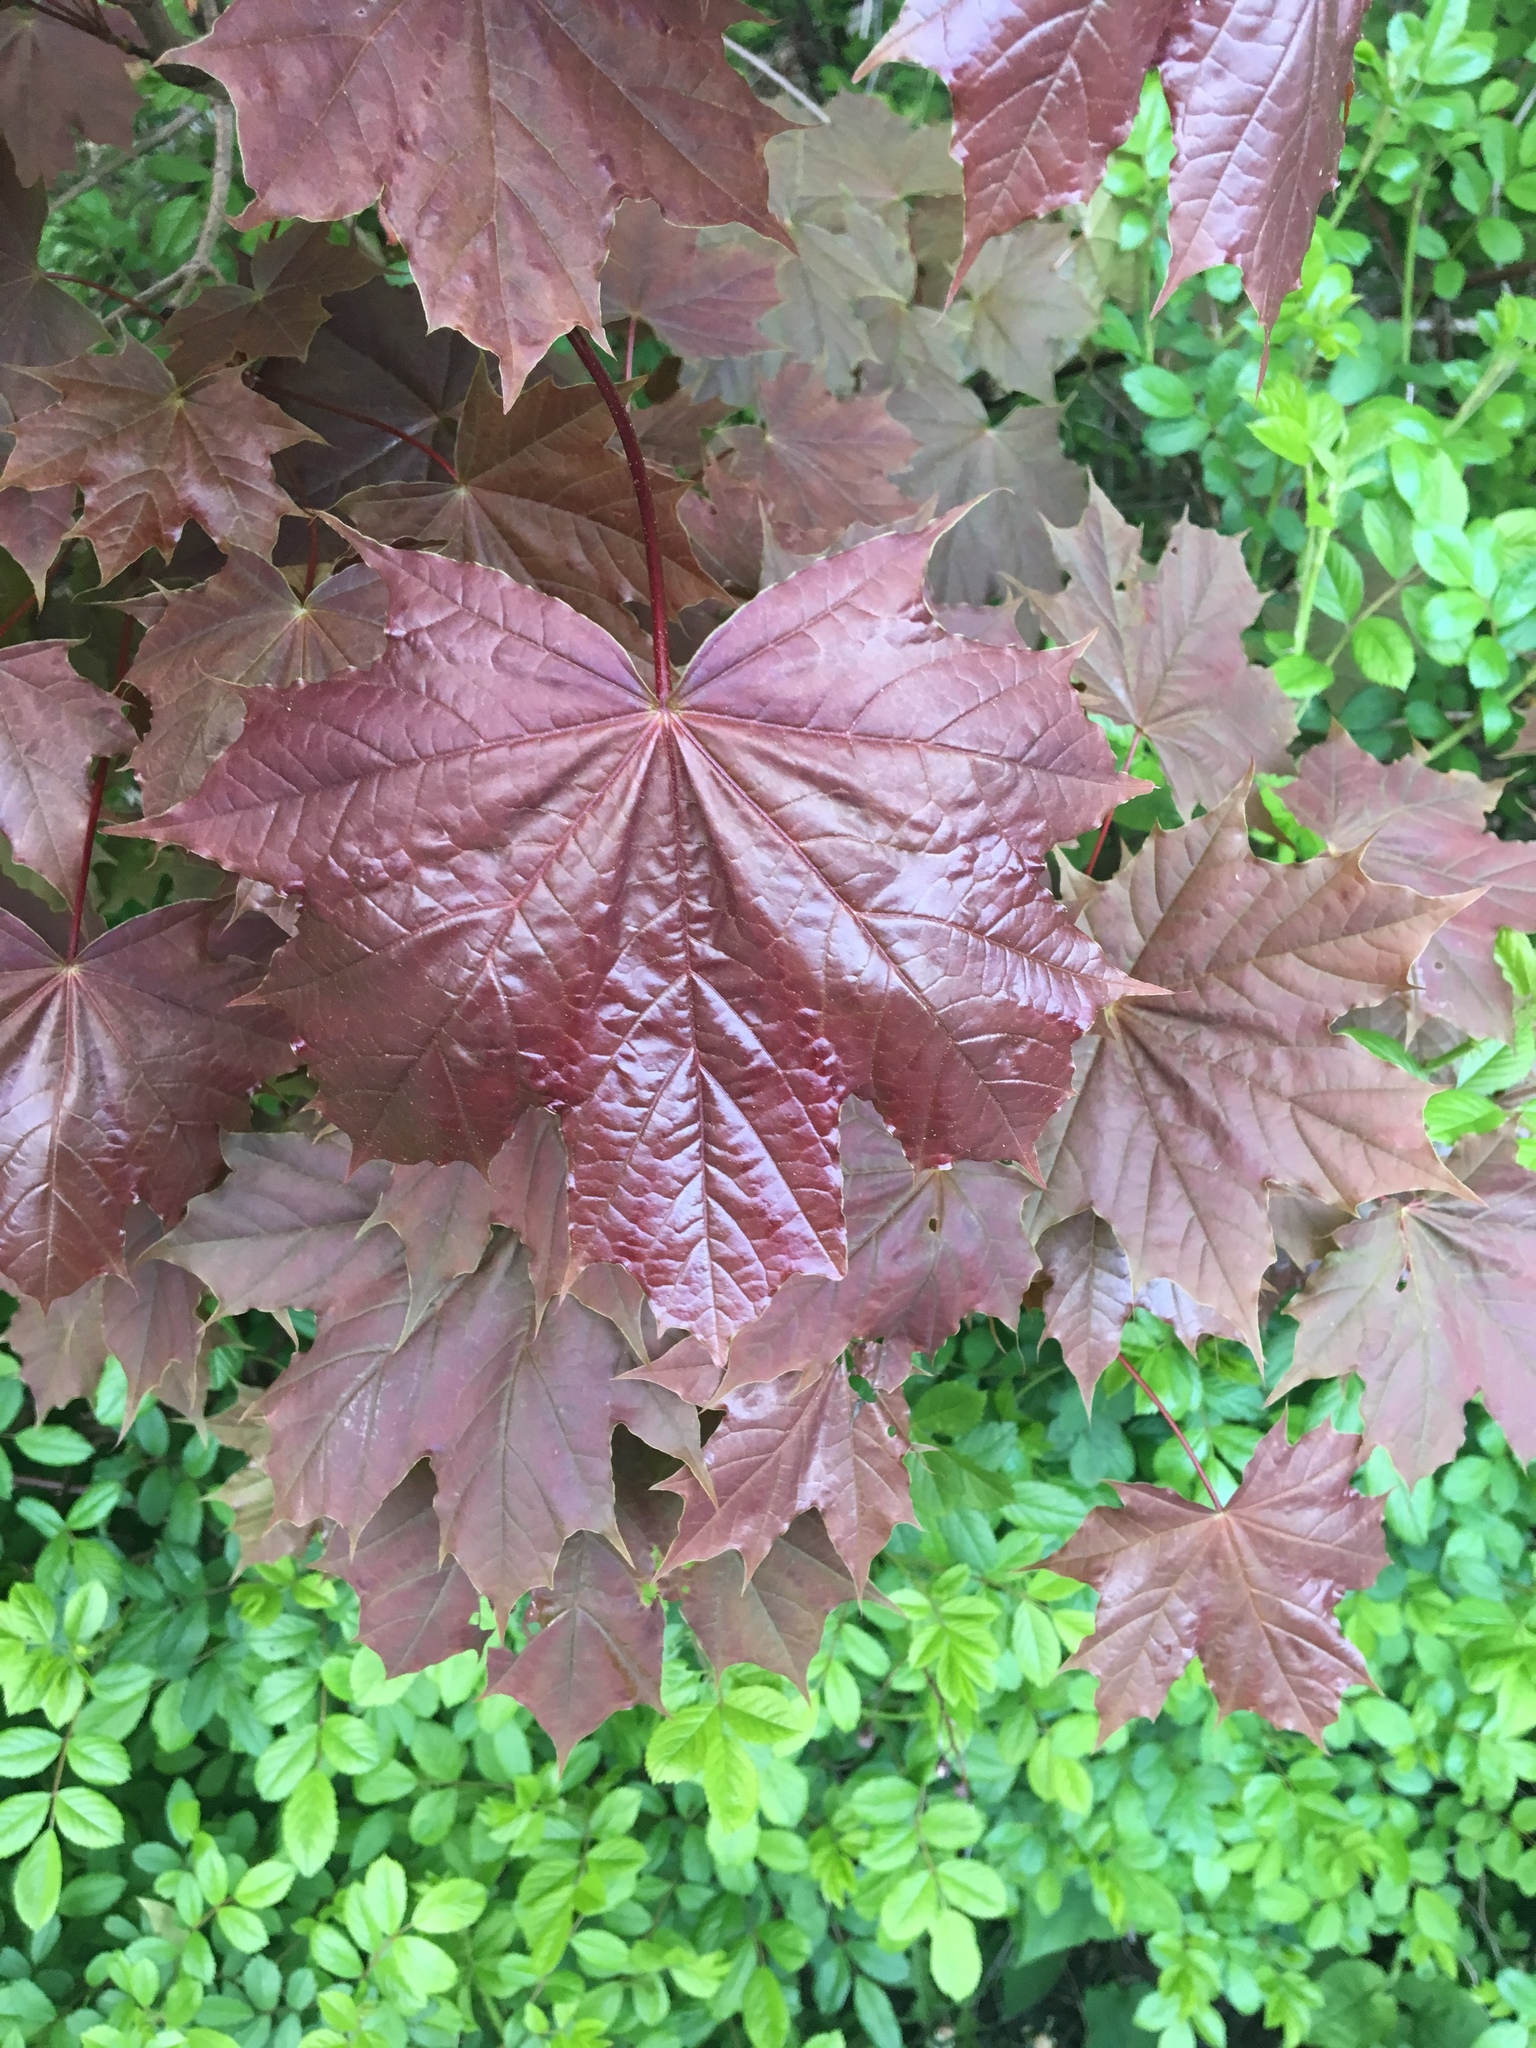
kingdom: Plantae
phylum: Tracheophyta
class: Magnoliopsida
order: Sapindales
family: Sapindaceae
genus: Acer
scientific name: Acer platanoides
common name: Norway maple
